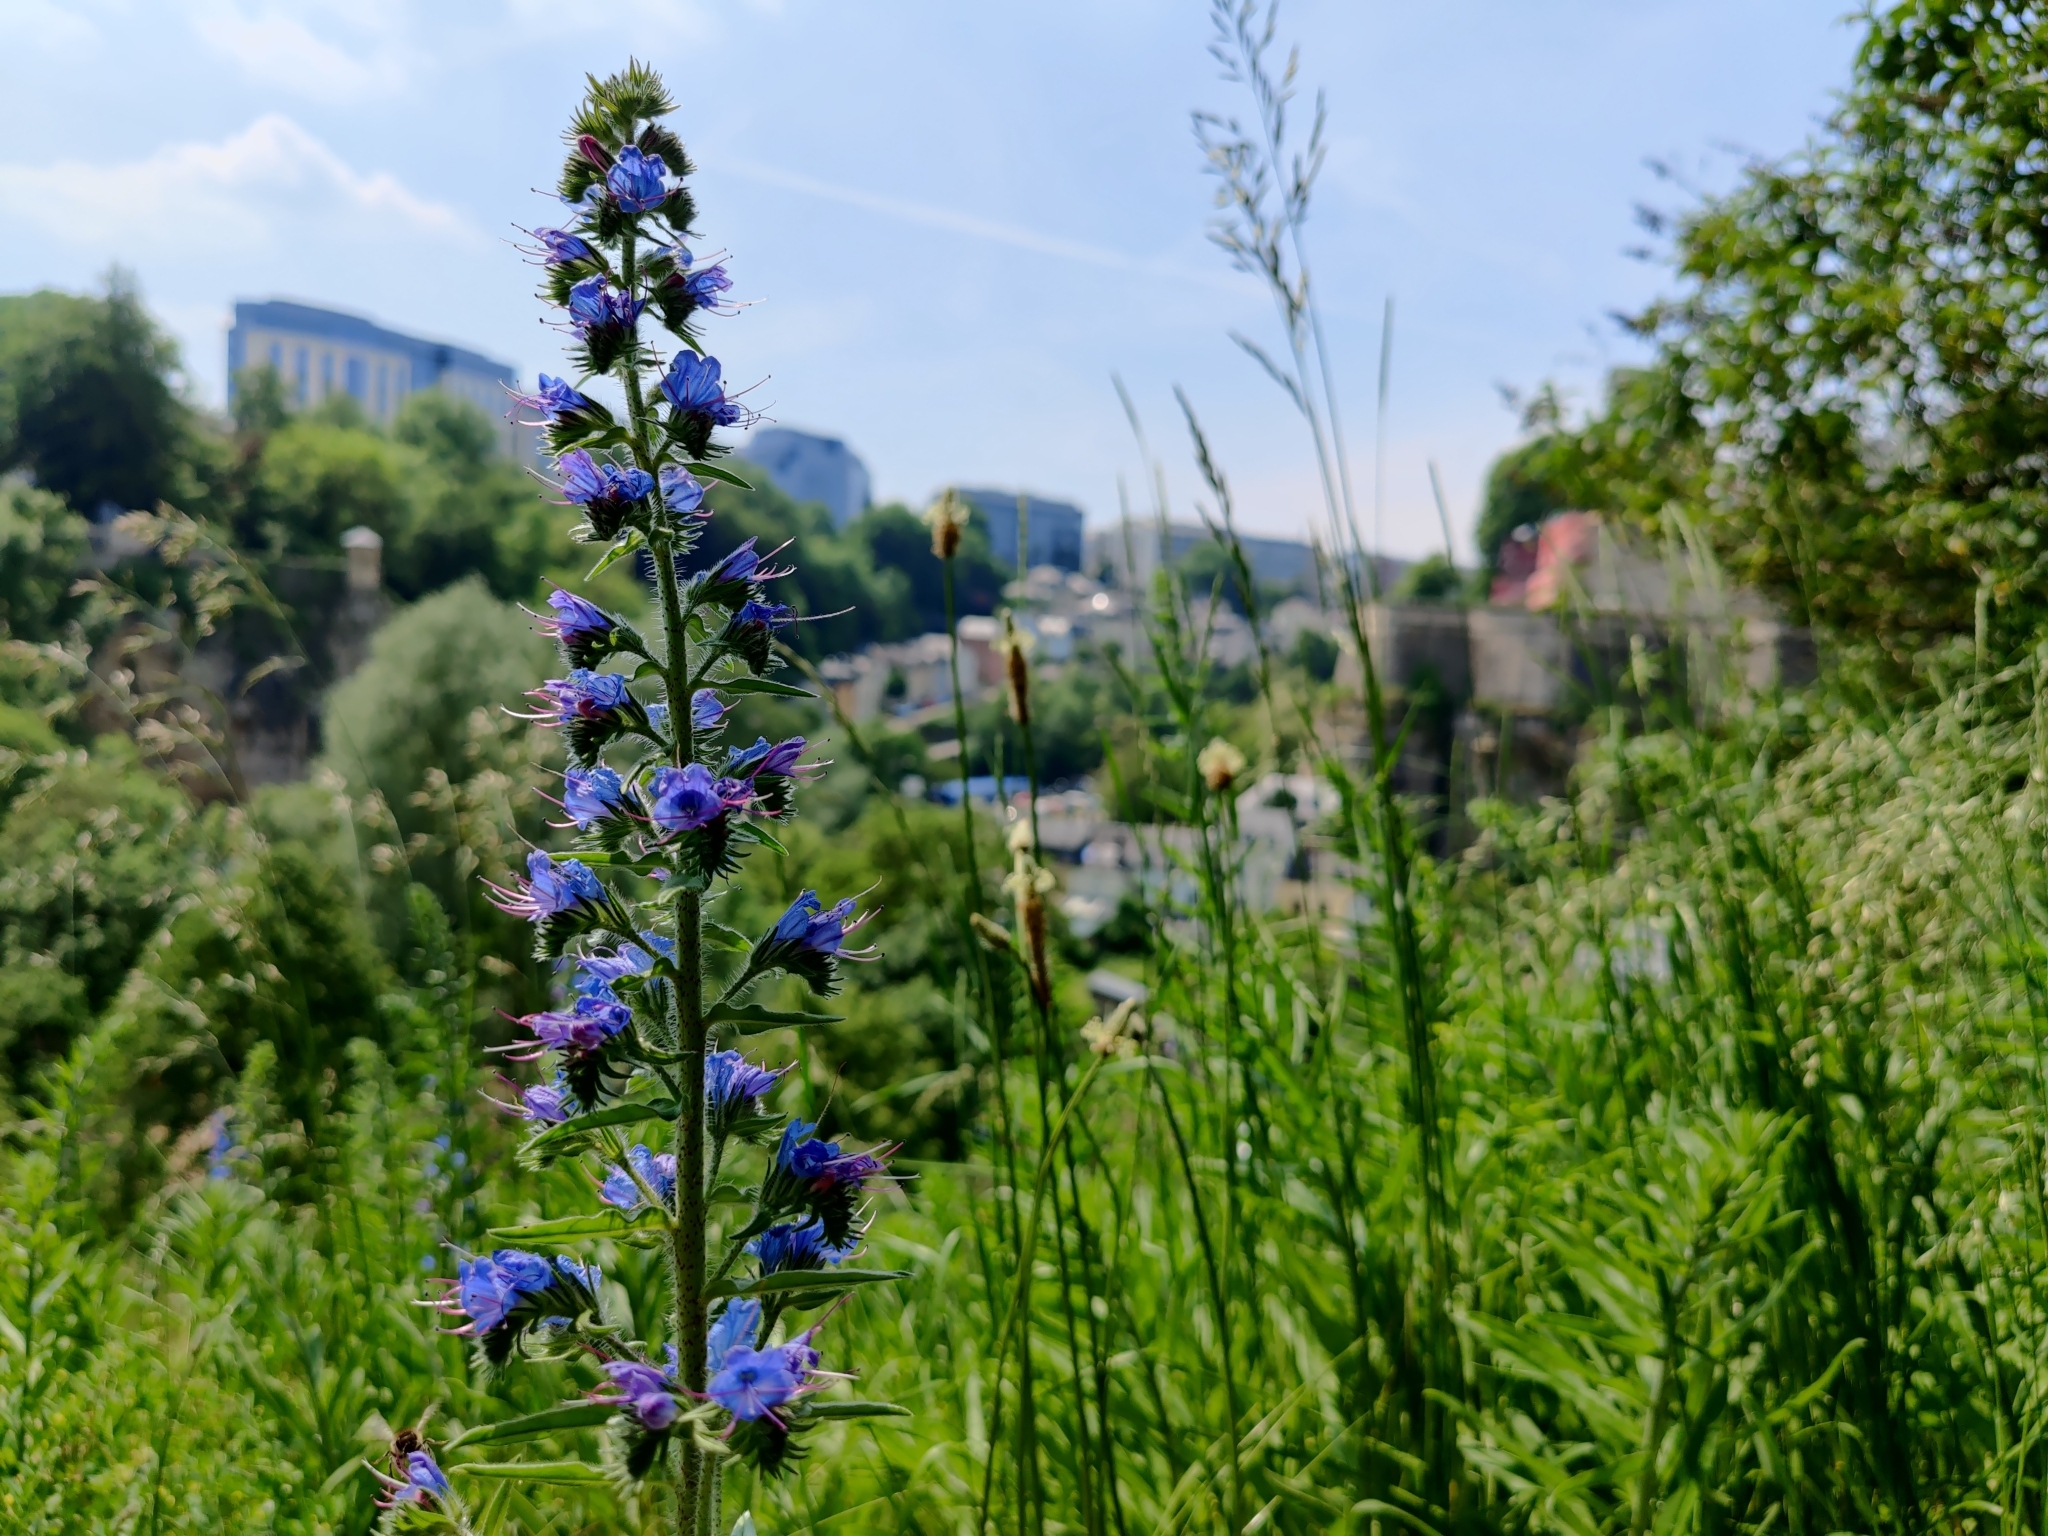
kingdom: Plantae
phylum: Tracheophyta
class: Magnoliopsida
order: Boraginales
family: Boraginaceae
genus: Echium
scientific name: Echium vulgare
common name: Common viper's bugloss
